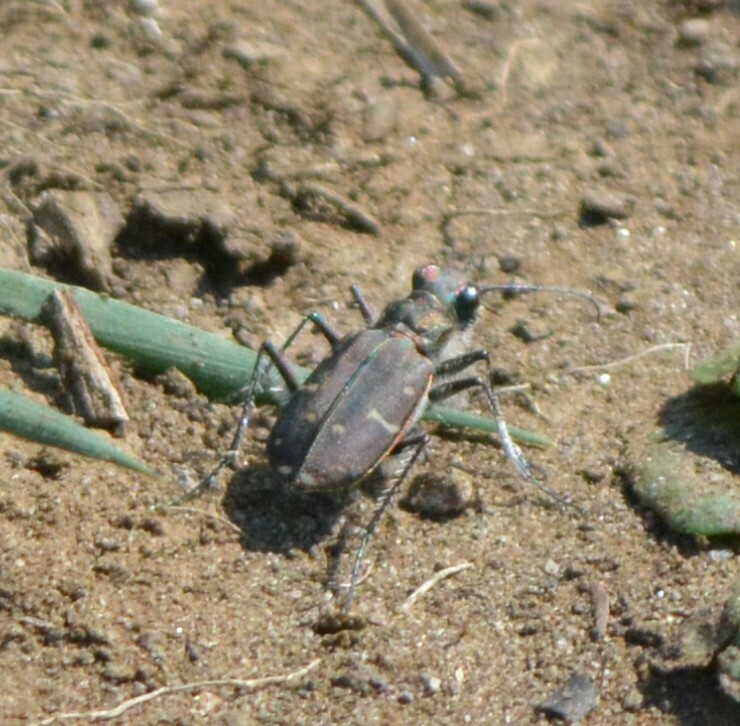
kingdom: Animalia
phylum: Arthropoda
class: Insecta
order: Coleoptera
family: Carabidae
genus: Cicindela
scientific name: Cicindela duodecimguttata
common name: Twelve-spotted tiger beetle
